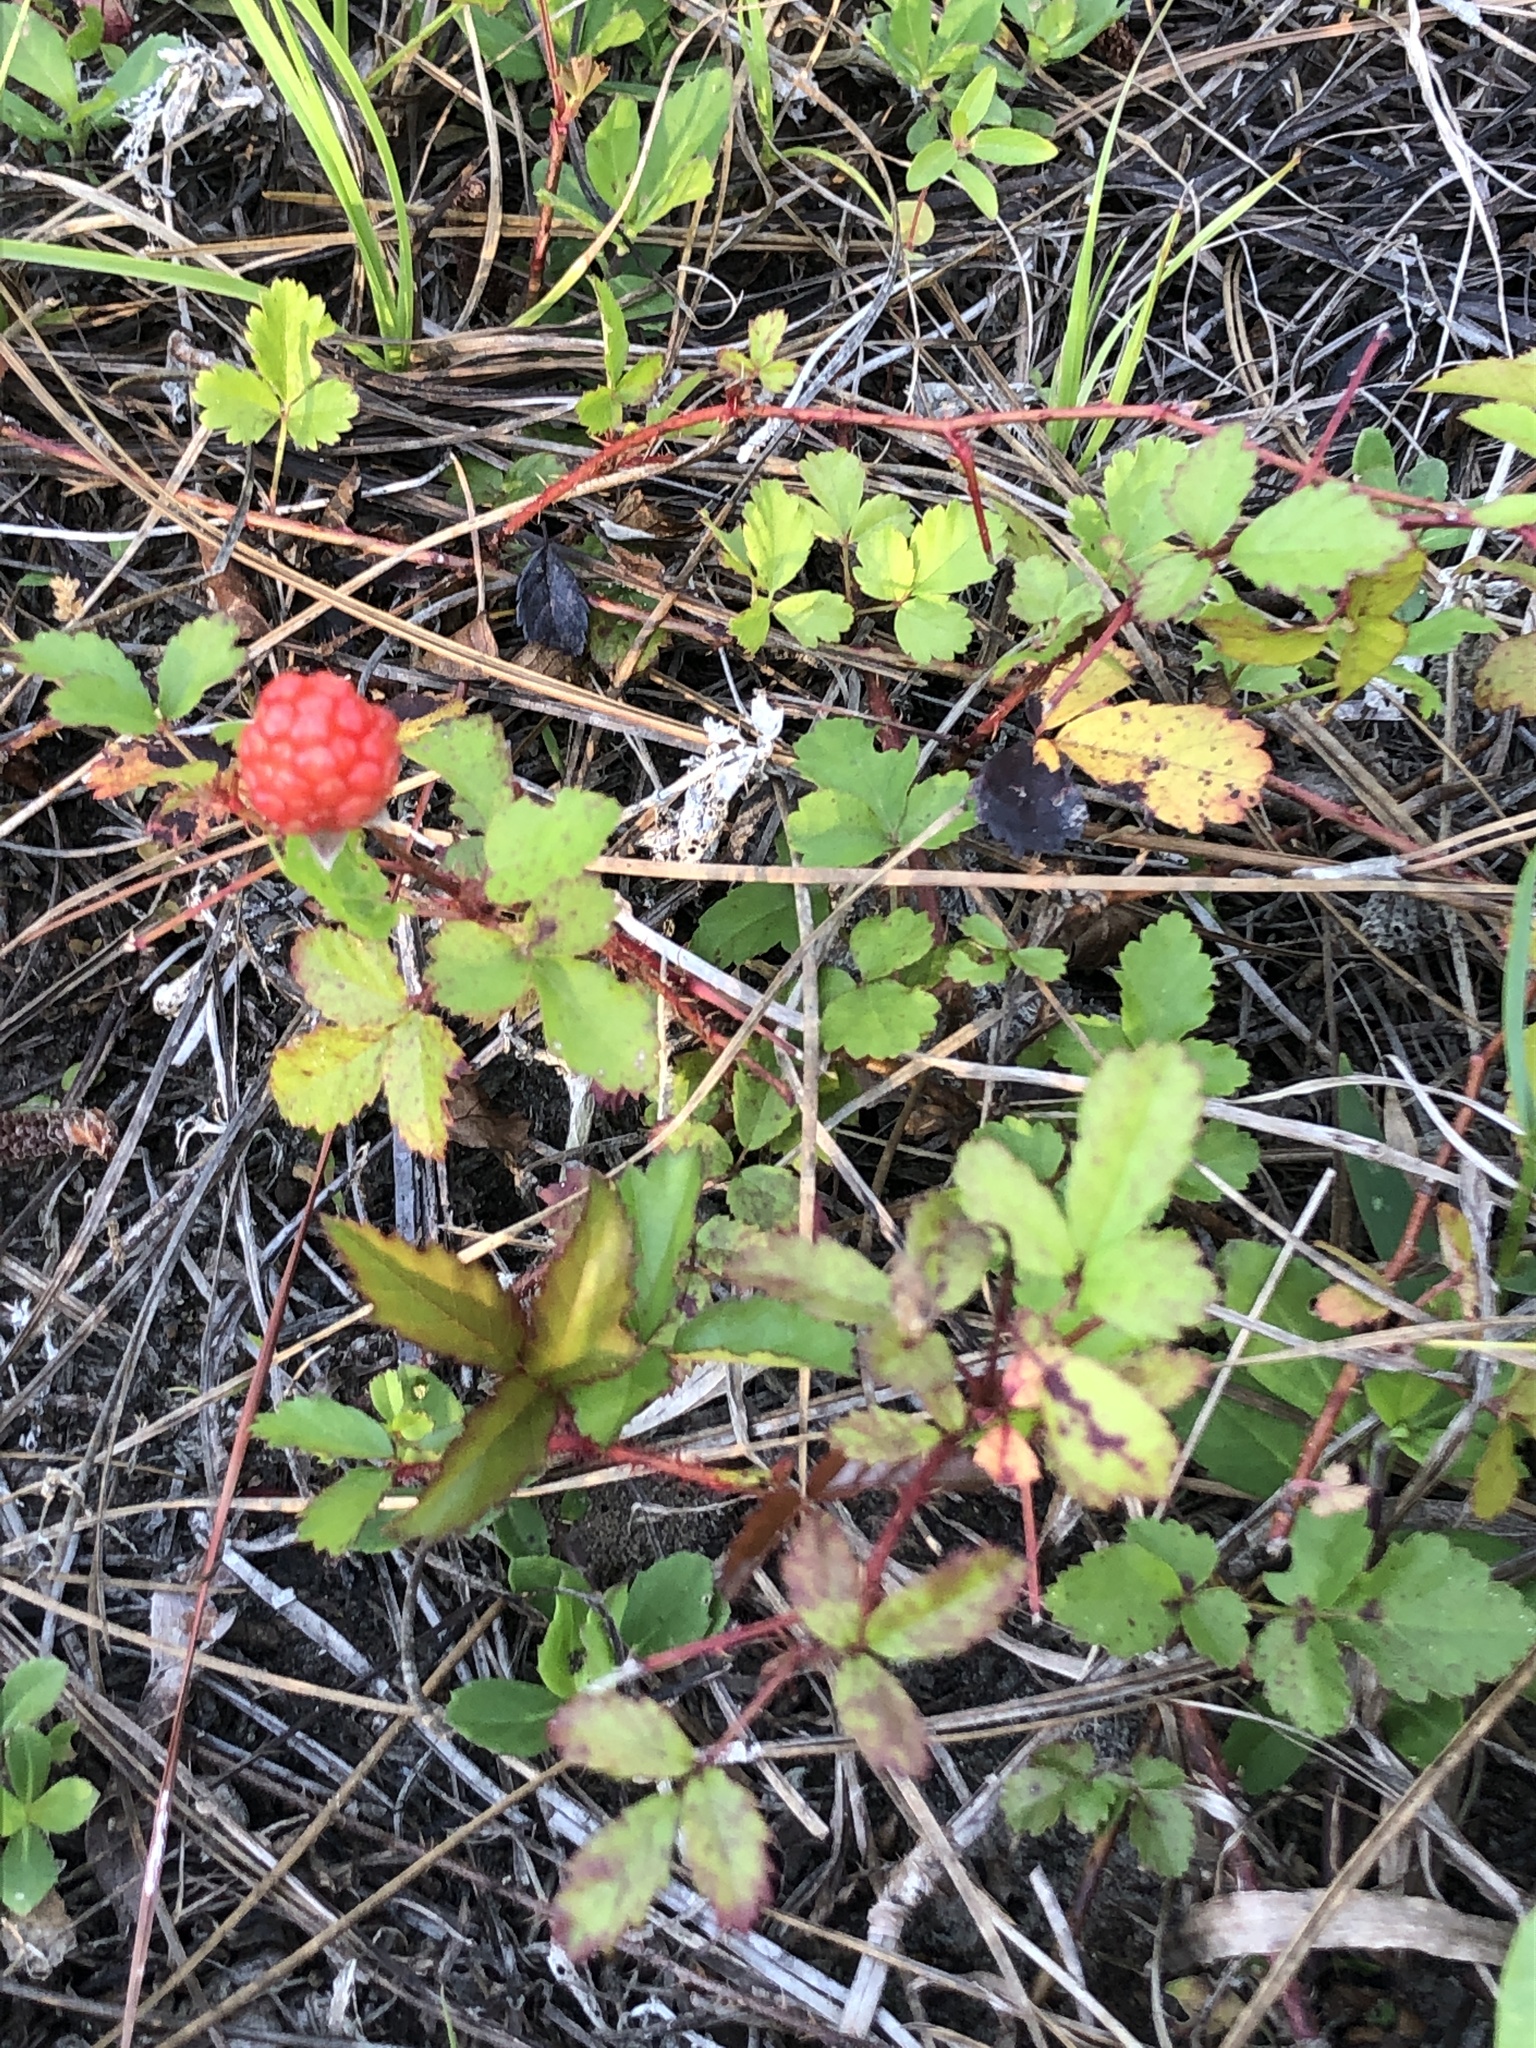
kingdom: Plantae
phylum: Tracheophyta
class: Magnoliopsida
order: Rosales
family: Rosaceae
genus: Rubus
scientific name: Rubus trivialis
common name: Southern dewberry
